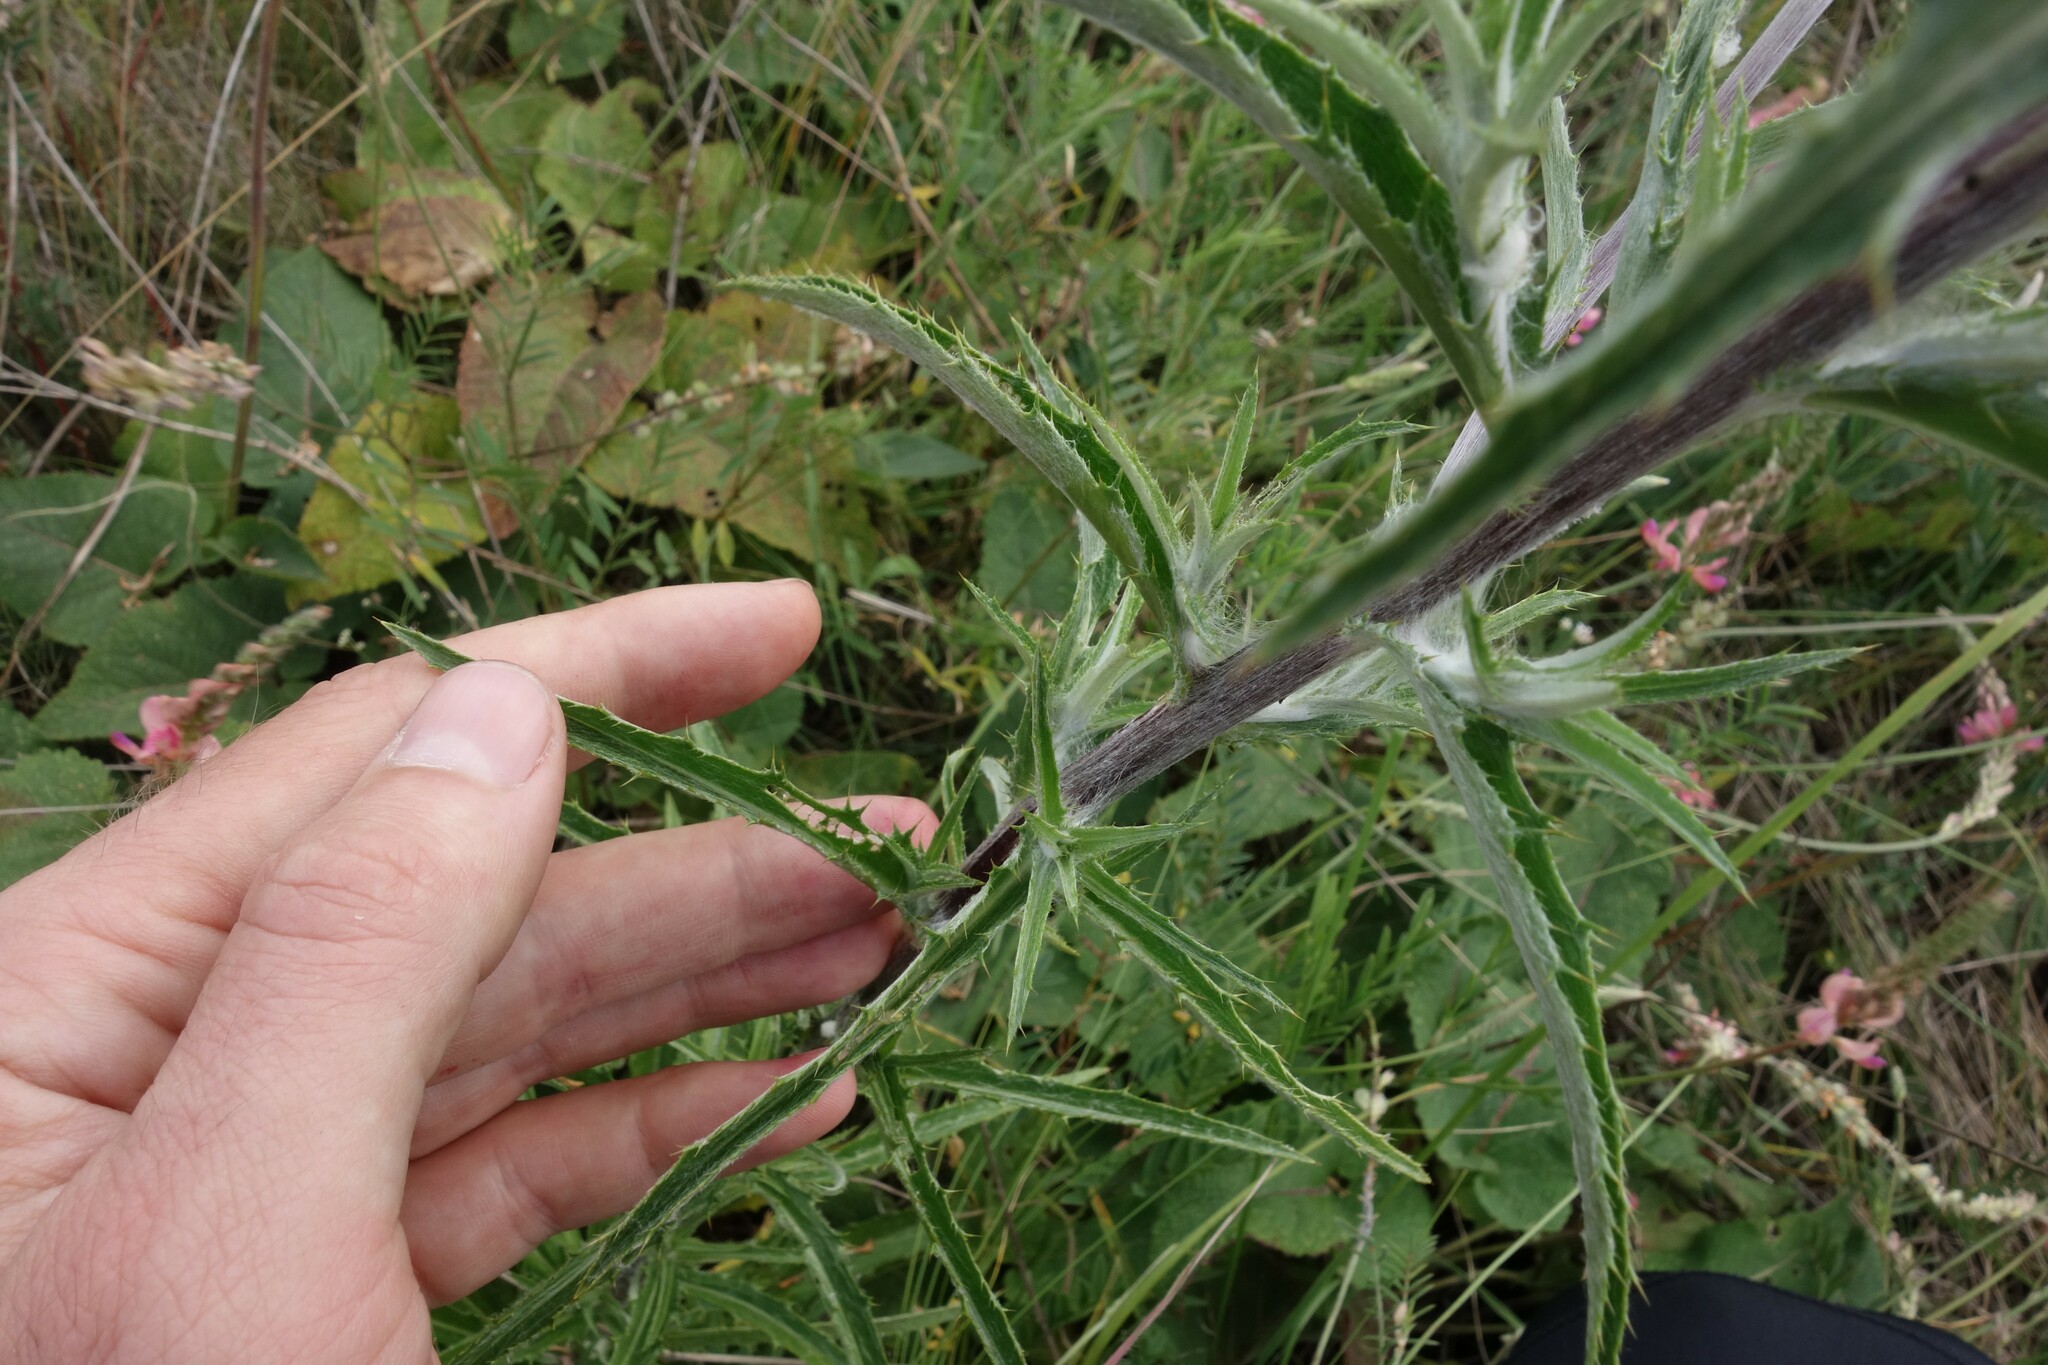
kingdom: Plantae
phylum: Tracheophyta
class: Magnoliopsida
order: Asterales
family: Asteraceae
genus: Carlina
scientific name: Carlina biebersteinii
